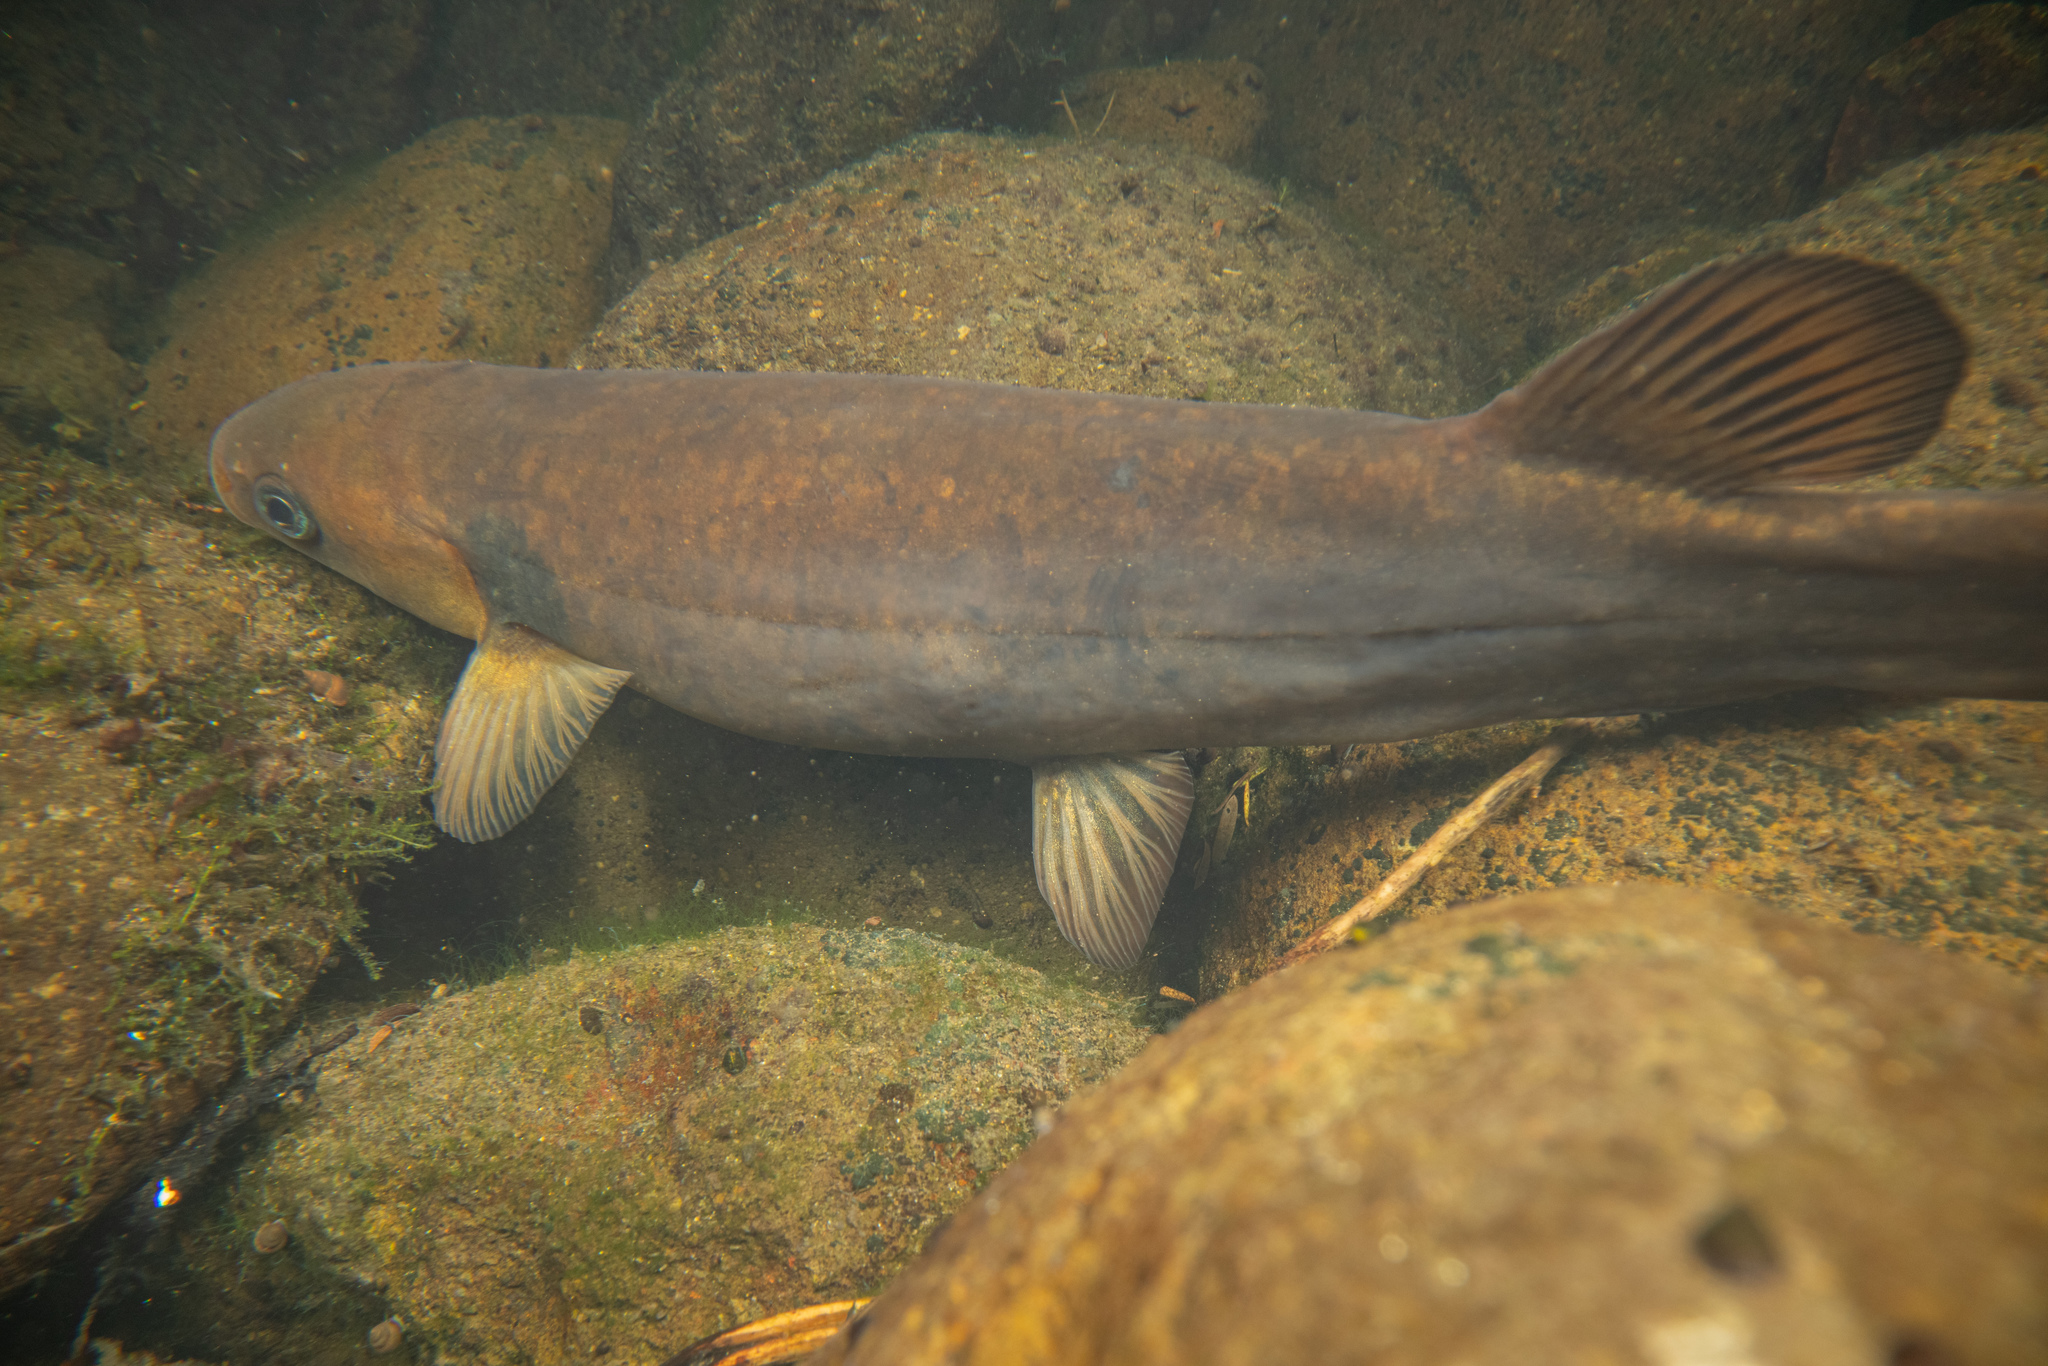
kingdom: Animalia
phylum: Chordata
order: Osmeriformes
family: Galaxiidae
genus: Galaxias
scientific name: Galaxias postvectis
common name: Shortjaw kokopu
